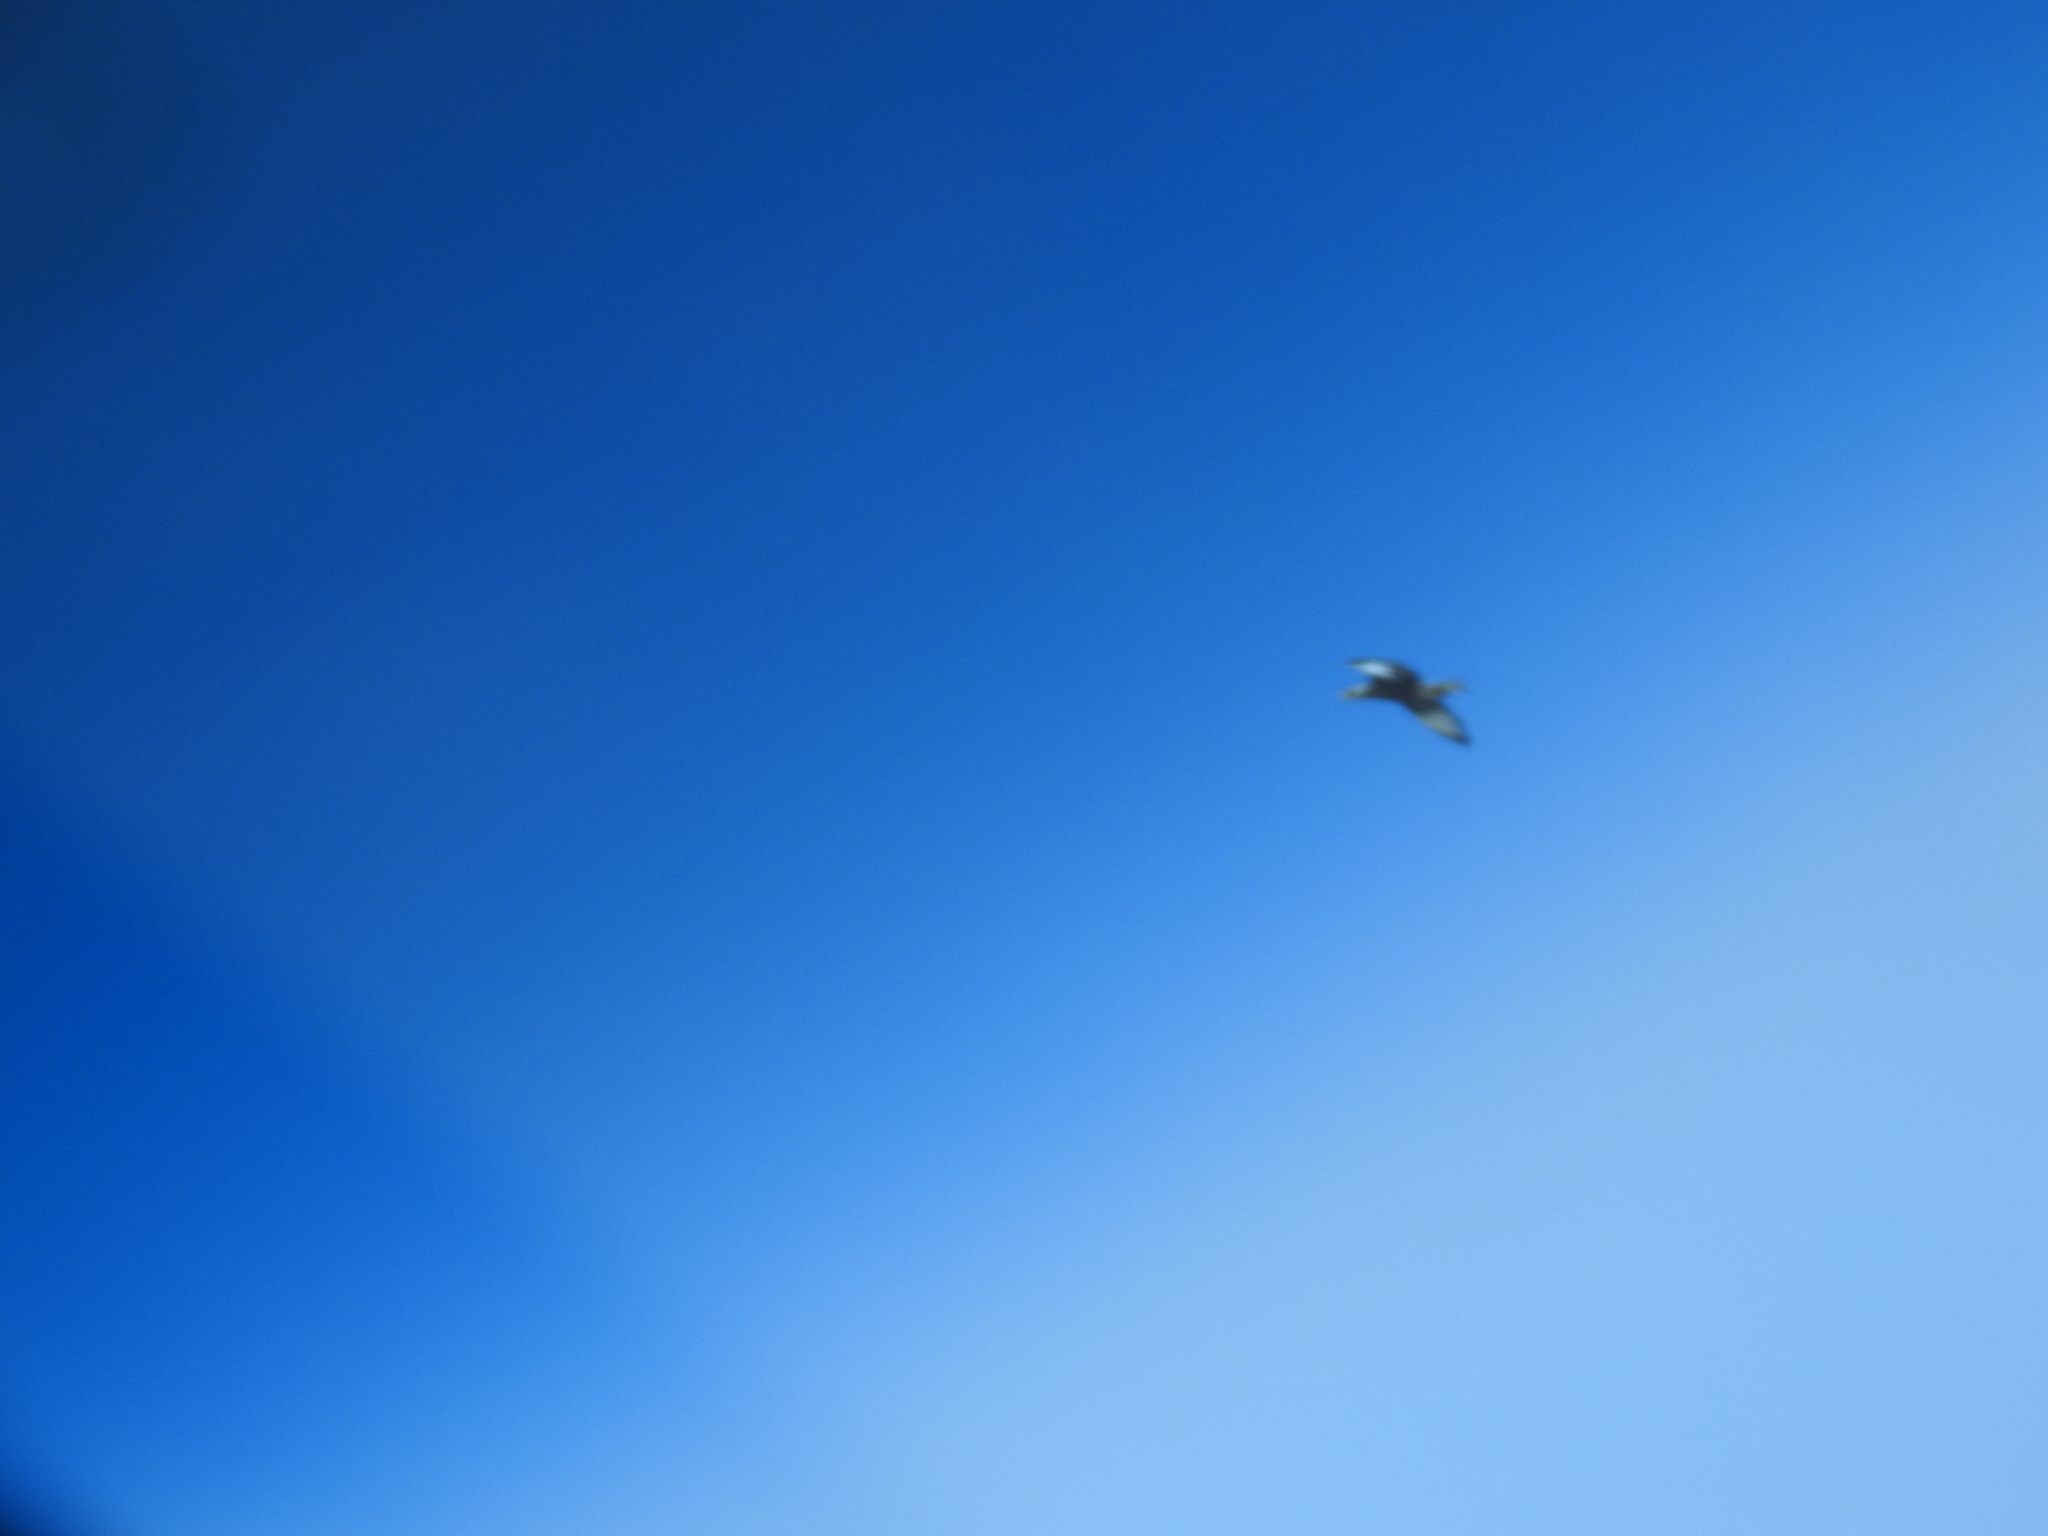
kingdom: Animalia
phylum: Chordata
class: Aves
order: Falconiformes
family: Falconidae
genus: Caracara
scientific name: Caracara plancus
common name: Southern caracara
